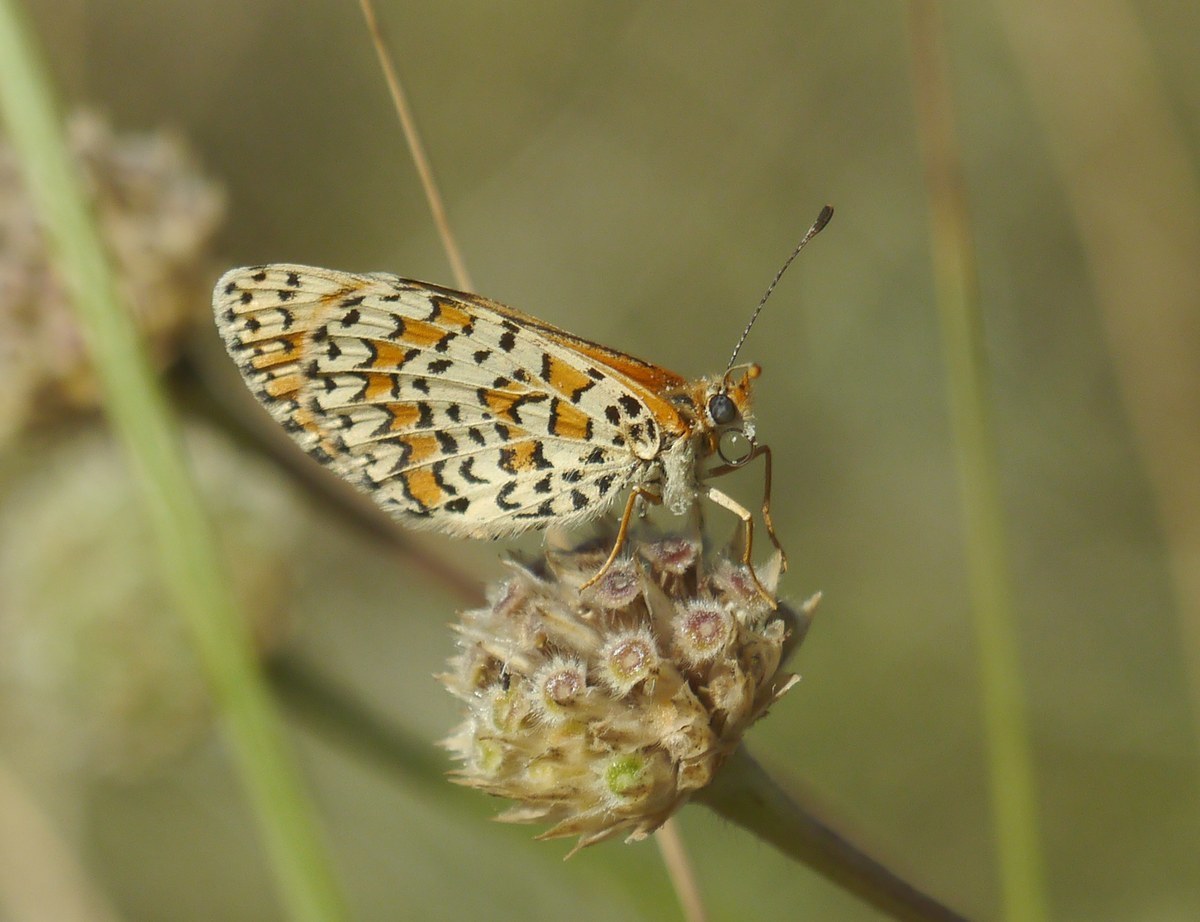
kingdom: Animalia
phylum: Arthropoda
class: Insecta
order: Lepidoptera
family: Nymphalidae
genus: Melitaea
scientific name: Melitaea trivia
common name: Lesser spotted fritillary
